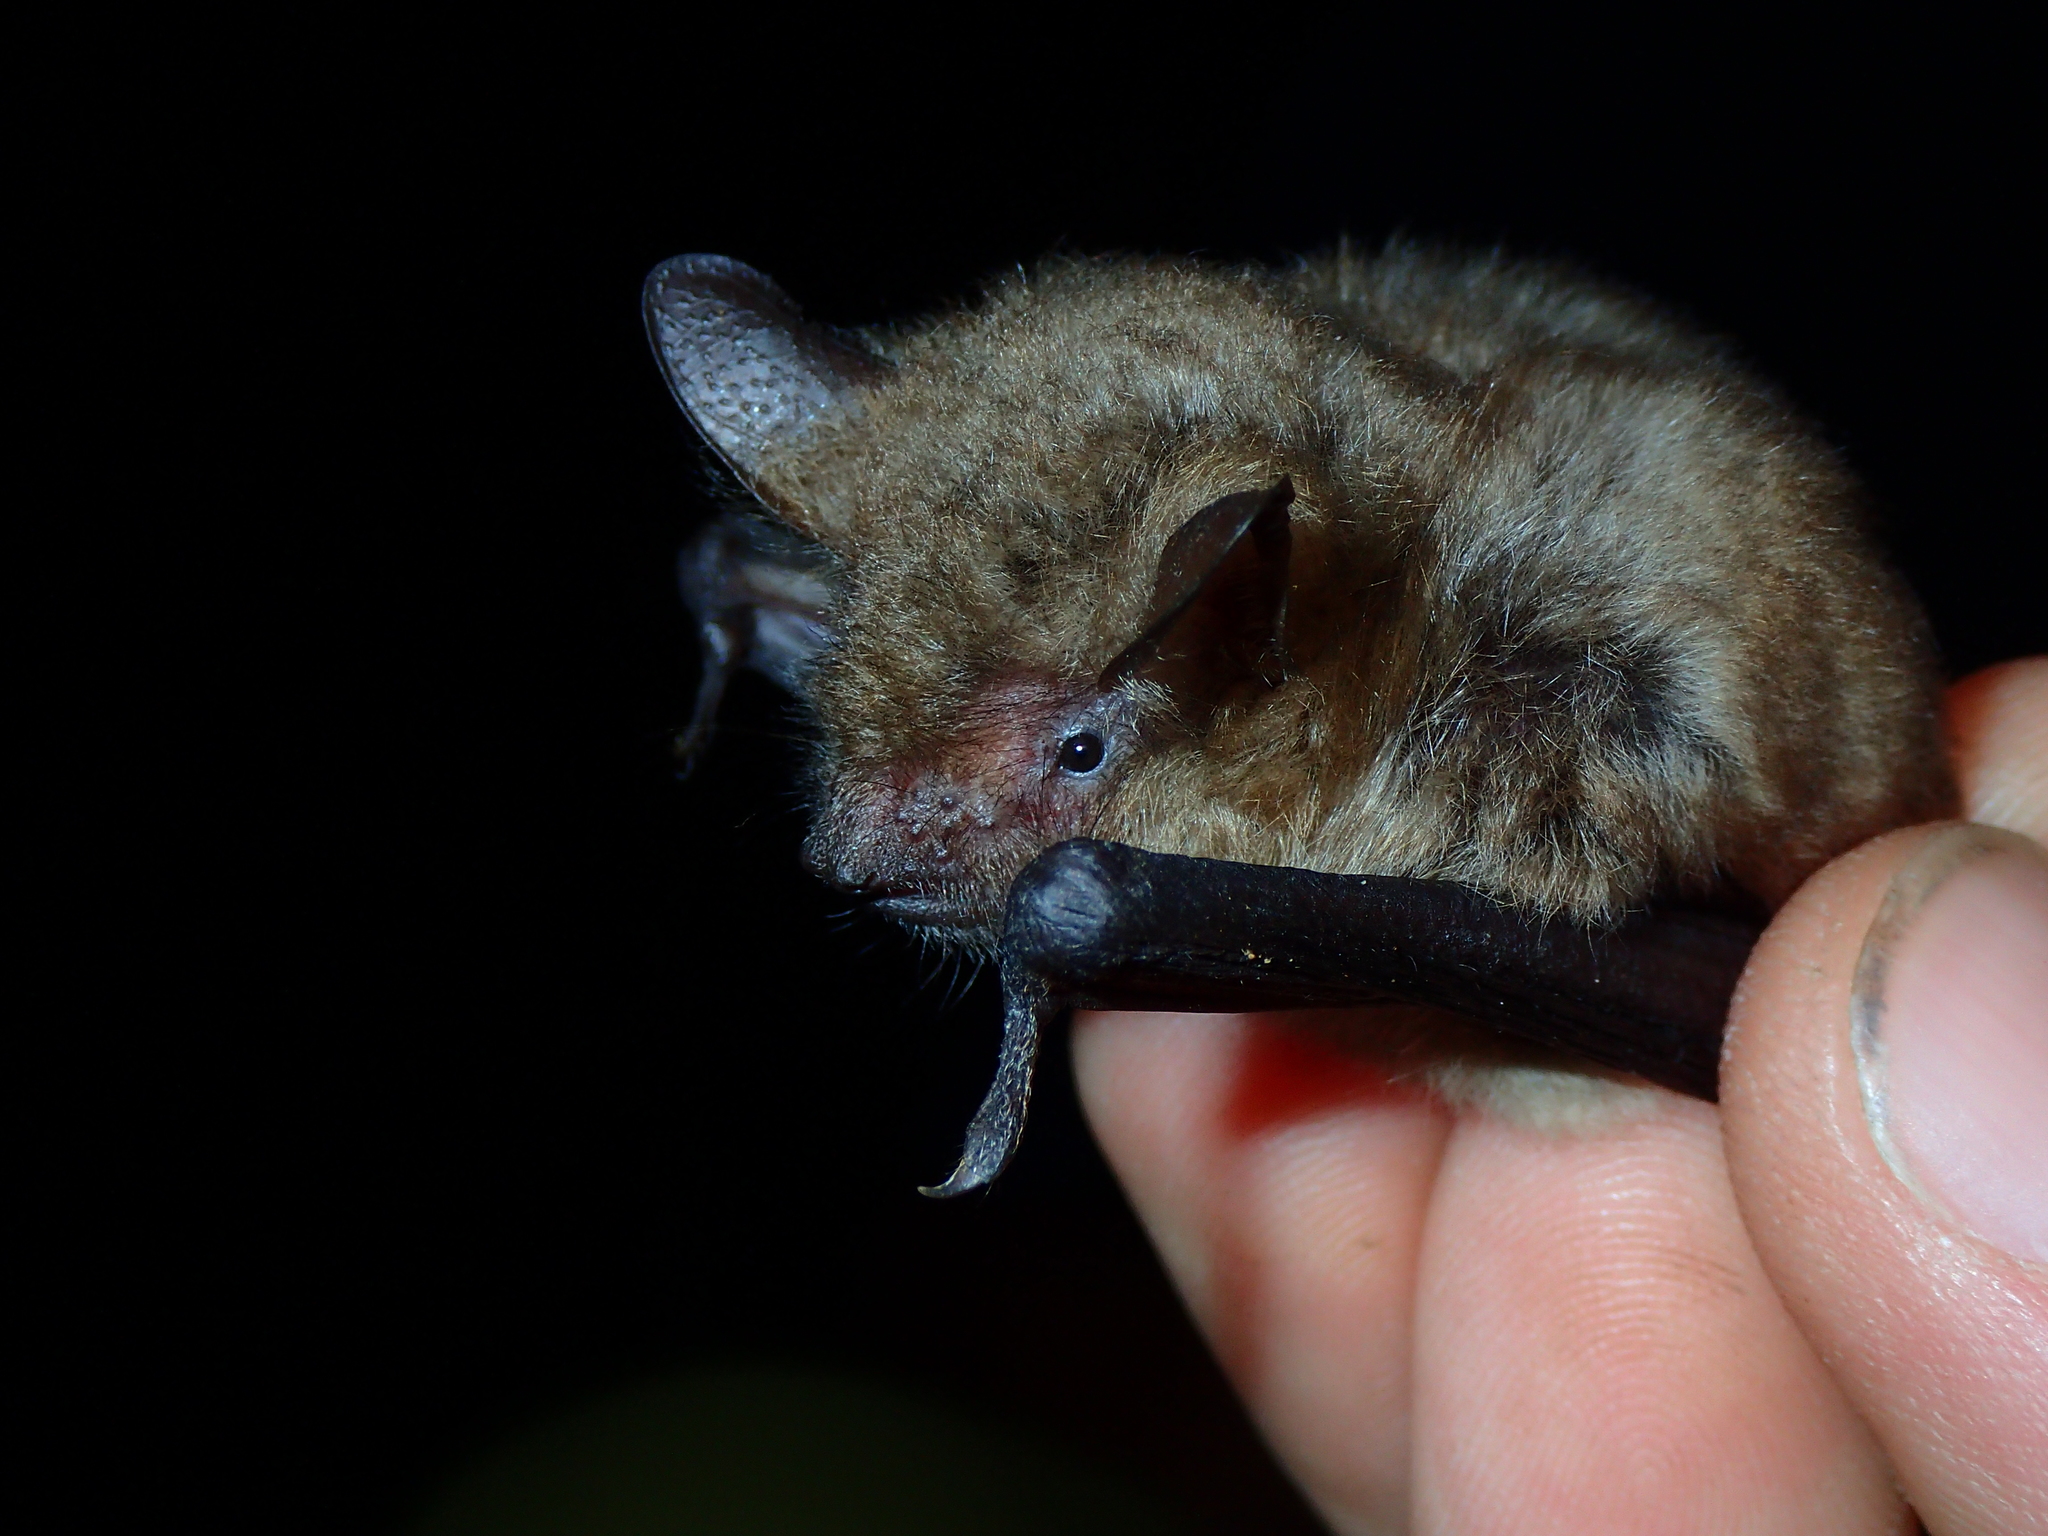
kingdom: Animalia
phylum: Chordata
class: Mammalia
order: Chiroptera
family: Vespertilionidae
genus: Myotis
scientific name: Myotis emarginatus
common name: Geoffroy's bat
